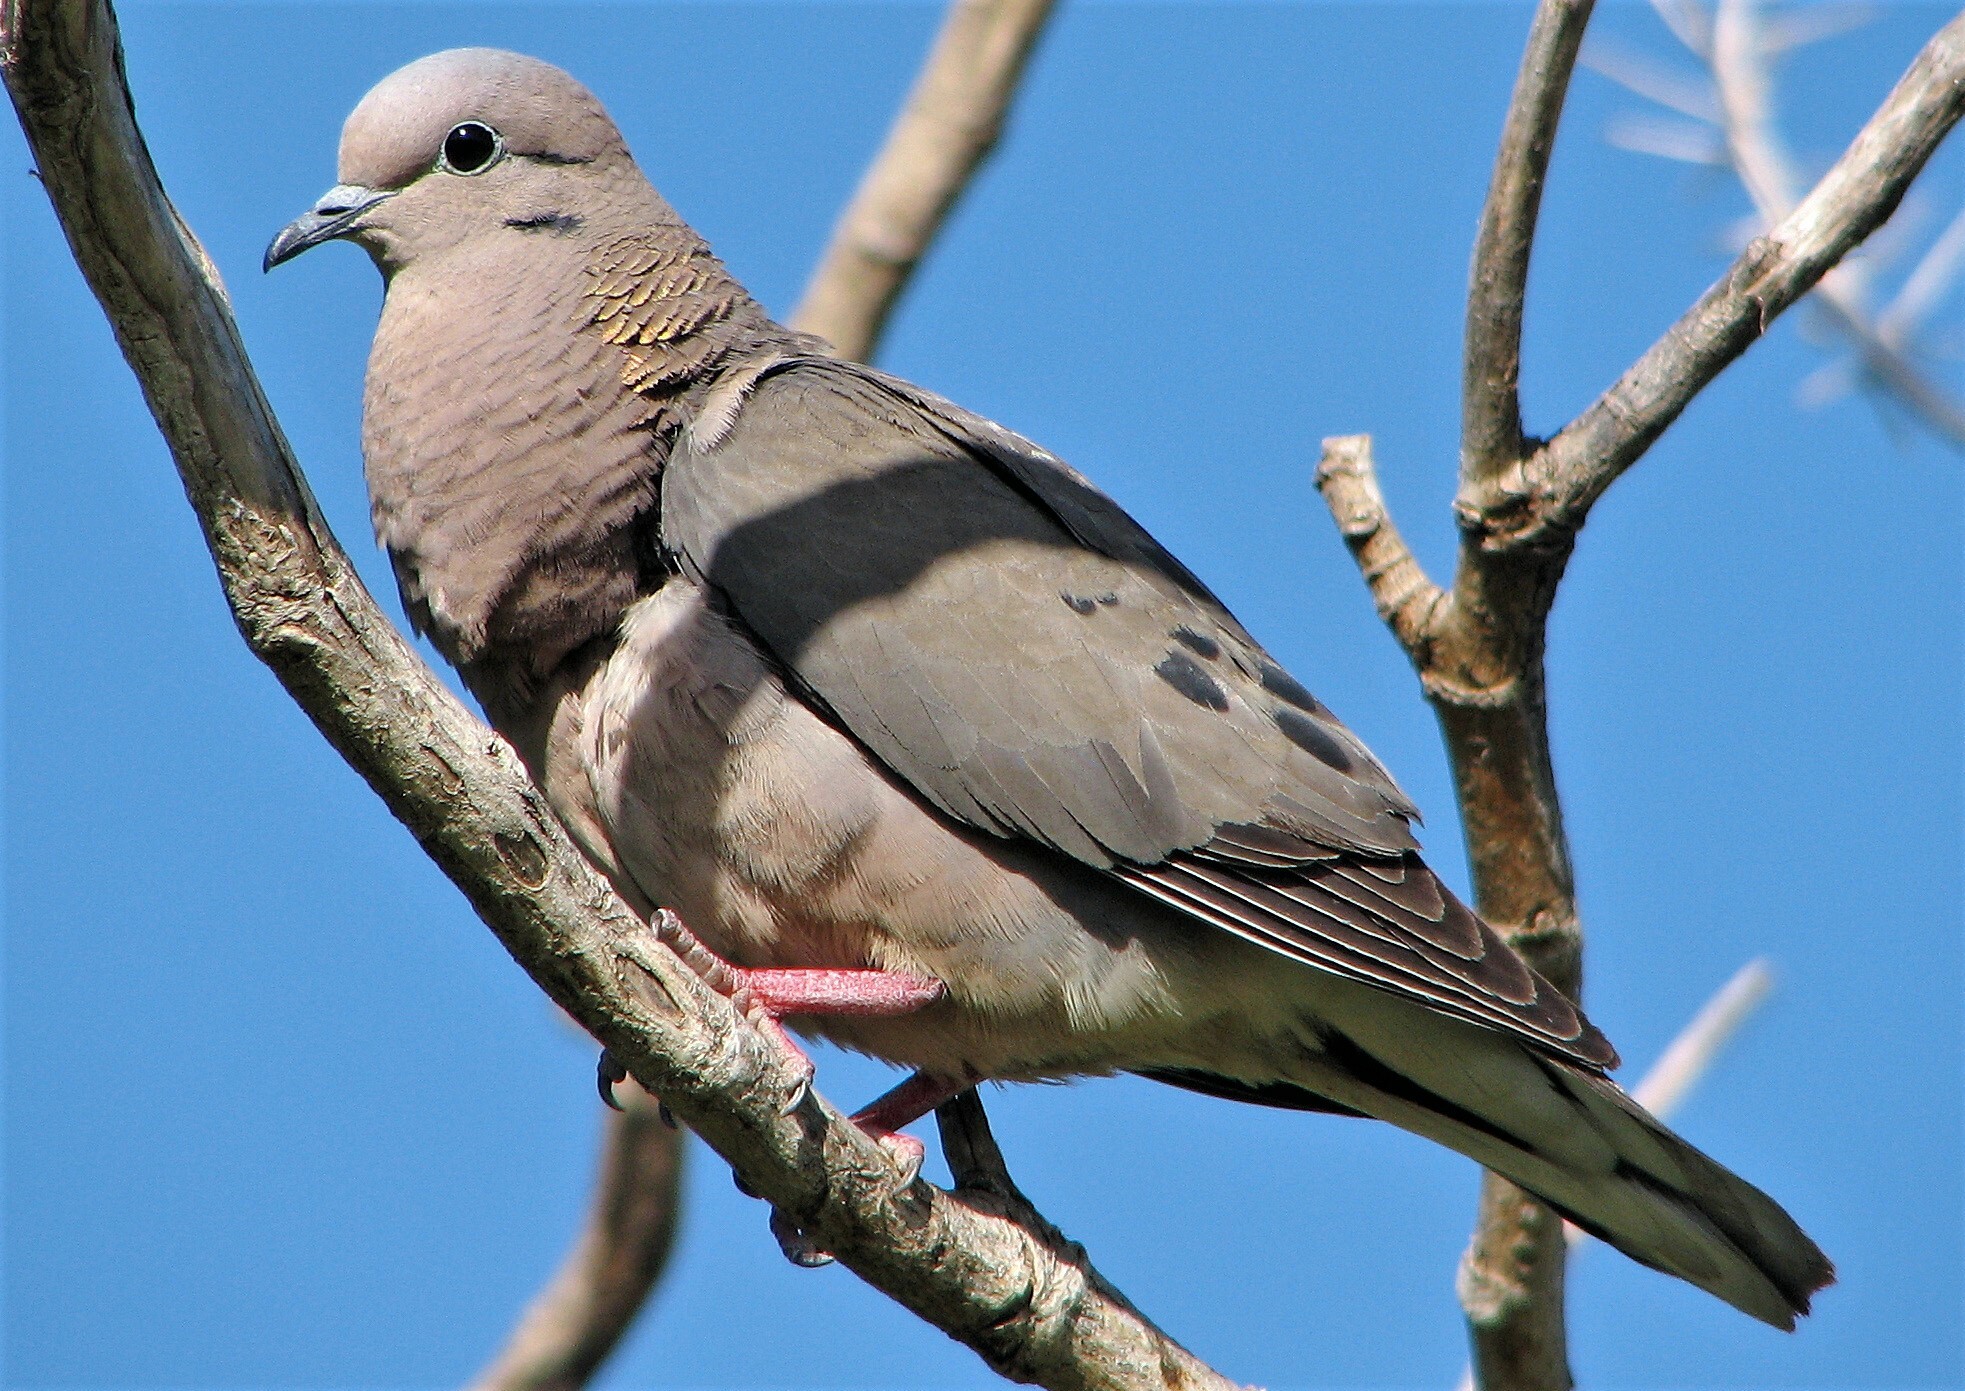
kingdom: Animalia
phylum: Chordata
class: Aves
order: Columbiformes
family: Columbidae
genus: Zenaida
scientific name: Zenaida auriculata
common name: Eared dove
